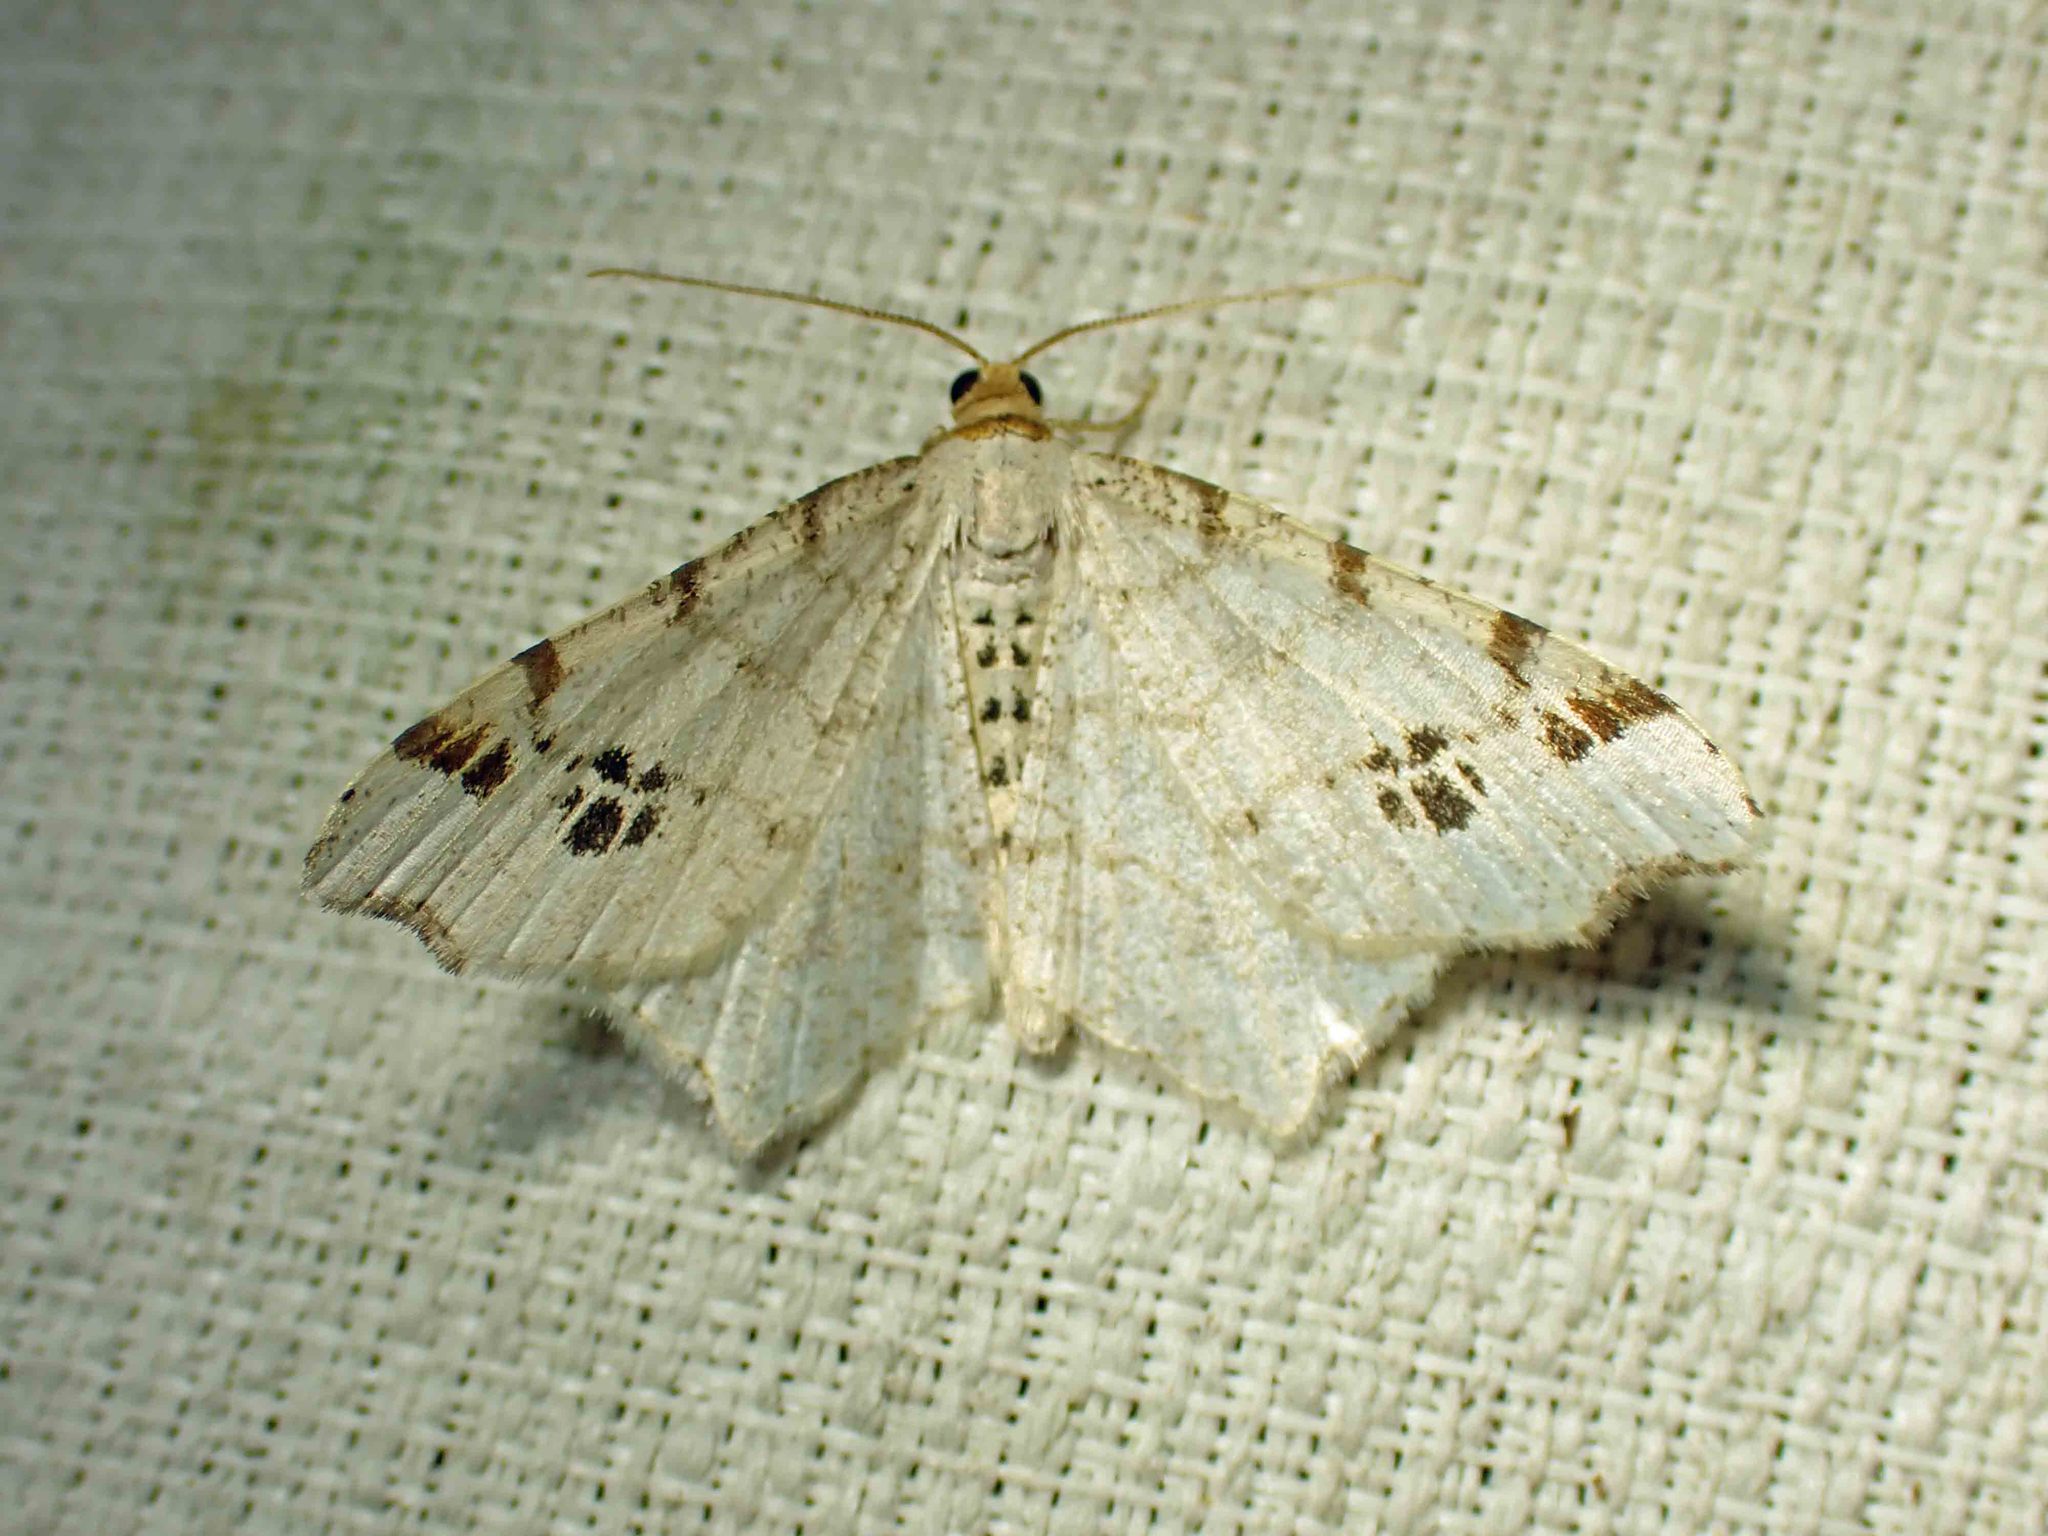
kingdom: Animalia
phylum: Arthropoda
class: Insecta
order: Lepidoptera
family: Geometridae
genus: Macaria
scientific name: Macaria ulsterata
